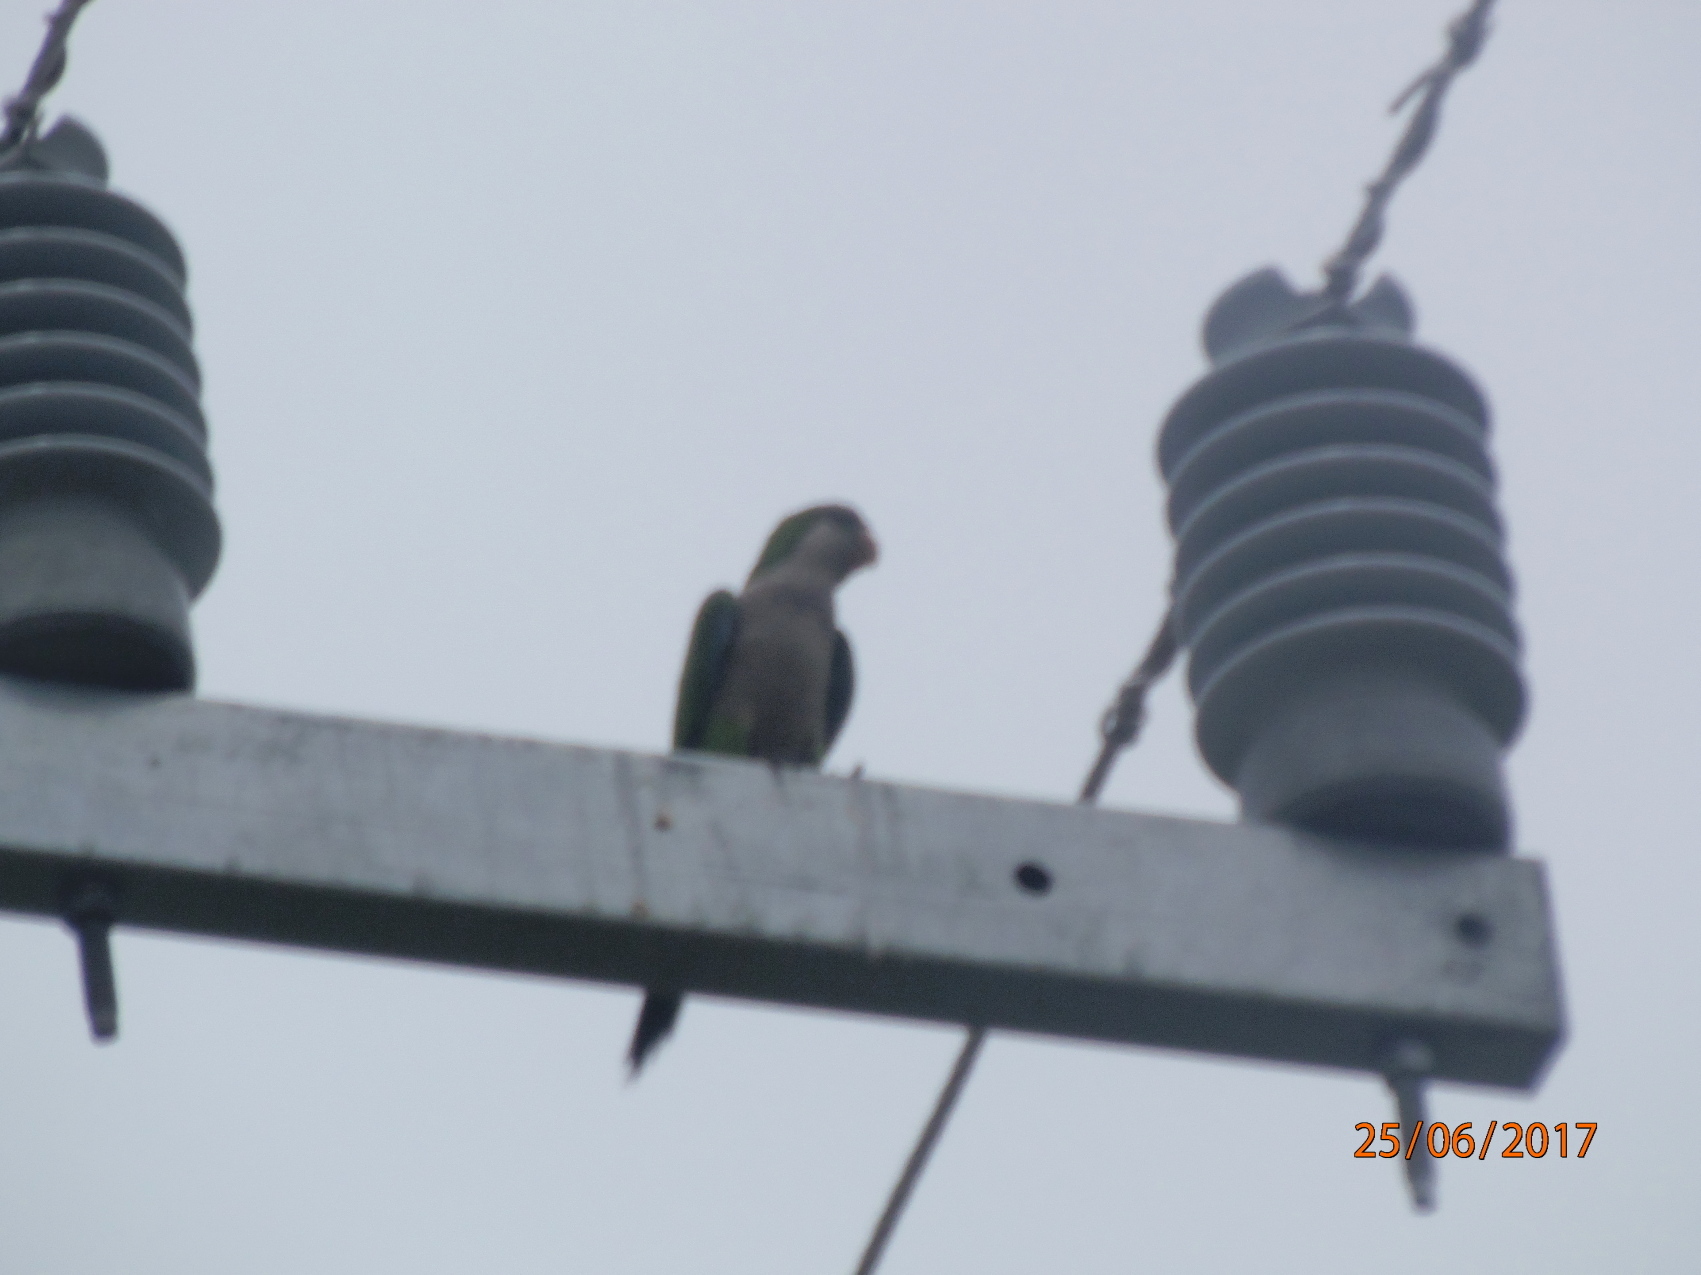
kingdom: Animalia
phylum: Chordata
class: Aves
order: Psittaciformes
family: Psittacidae
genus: Myiopsitta
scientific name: Myiopsitta monachus
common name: Monk parakeet
